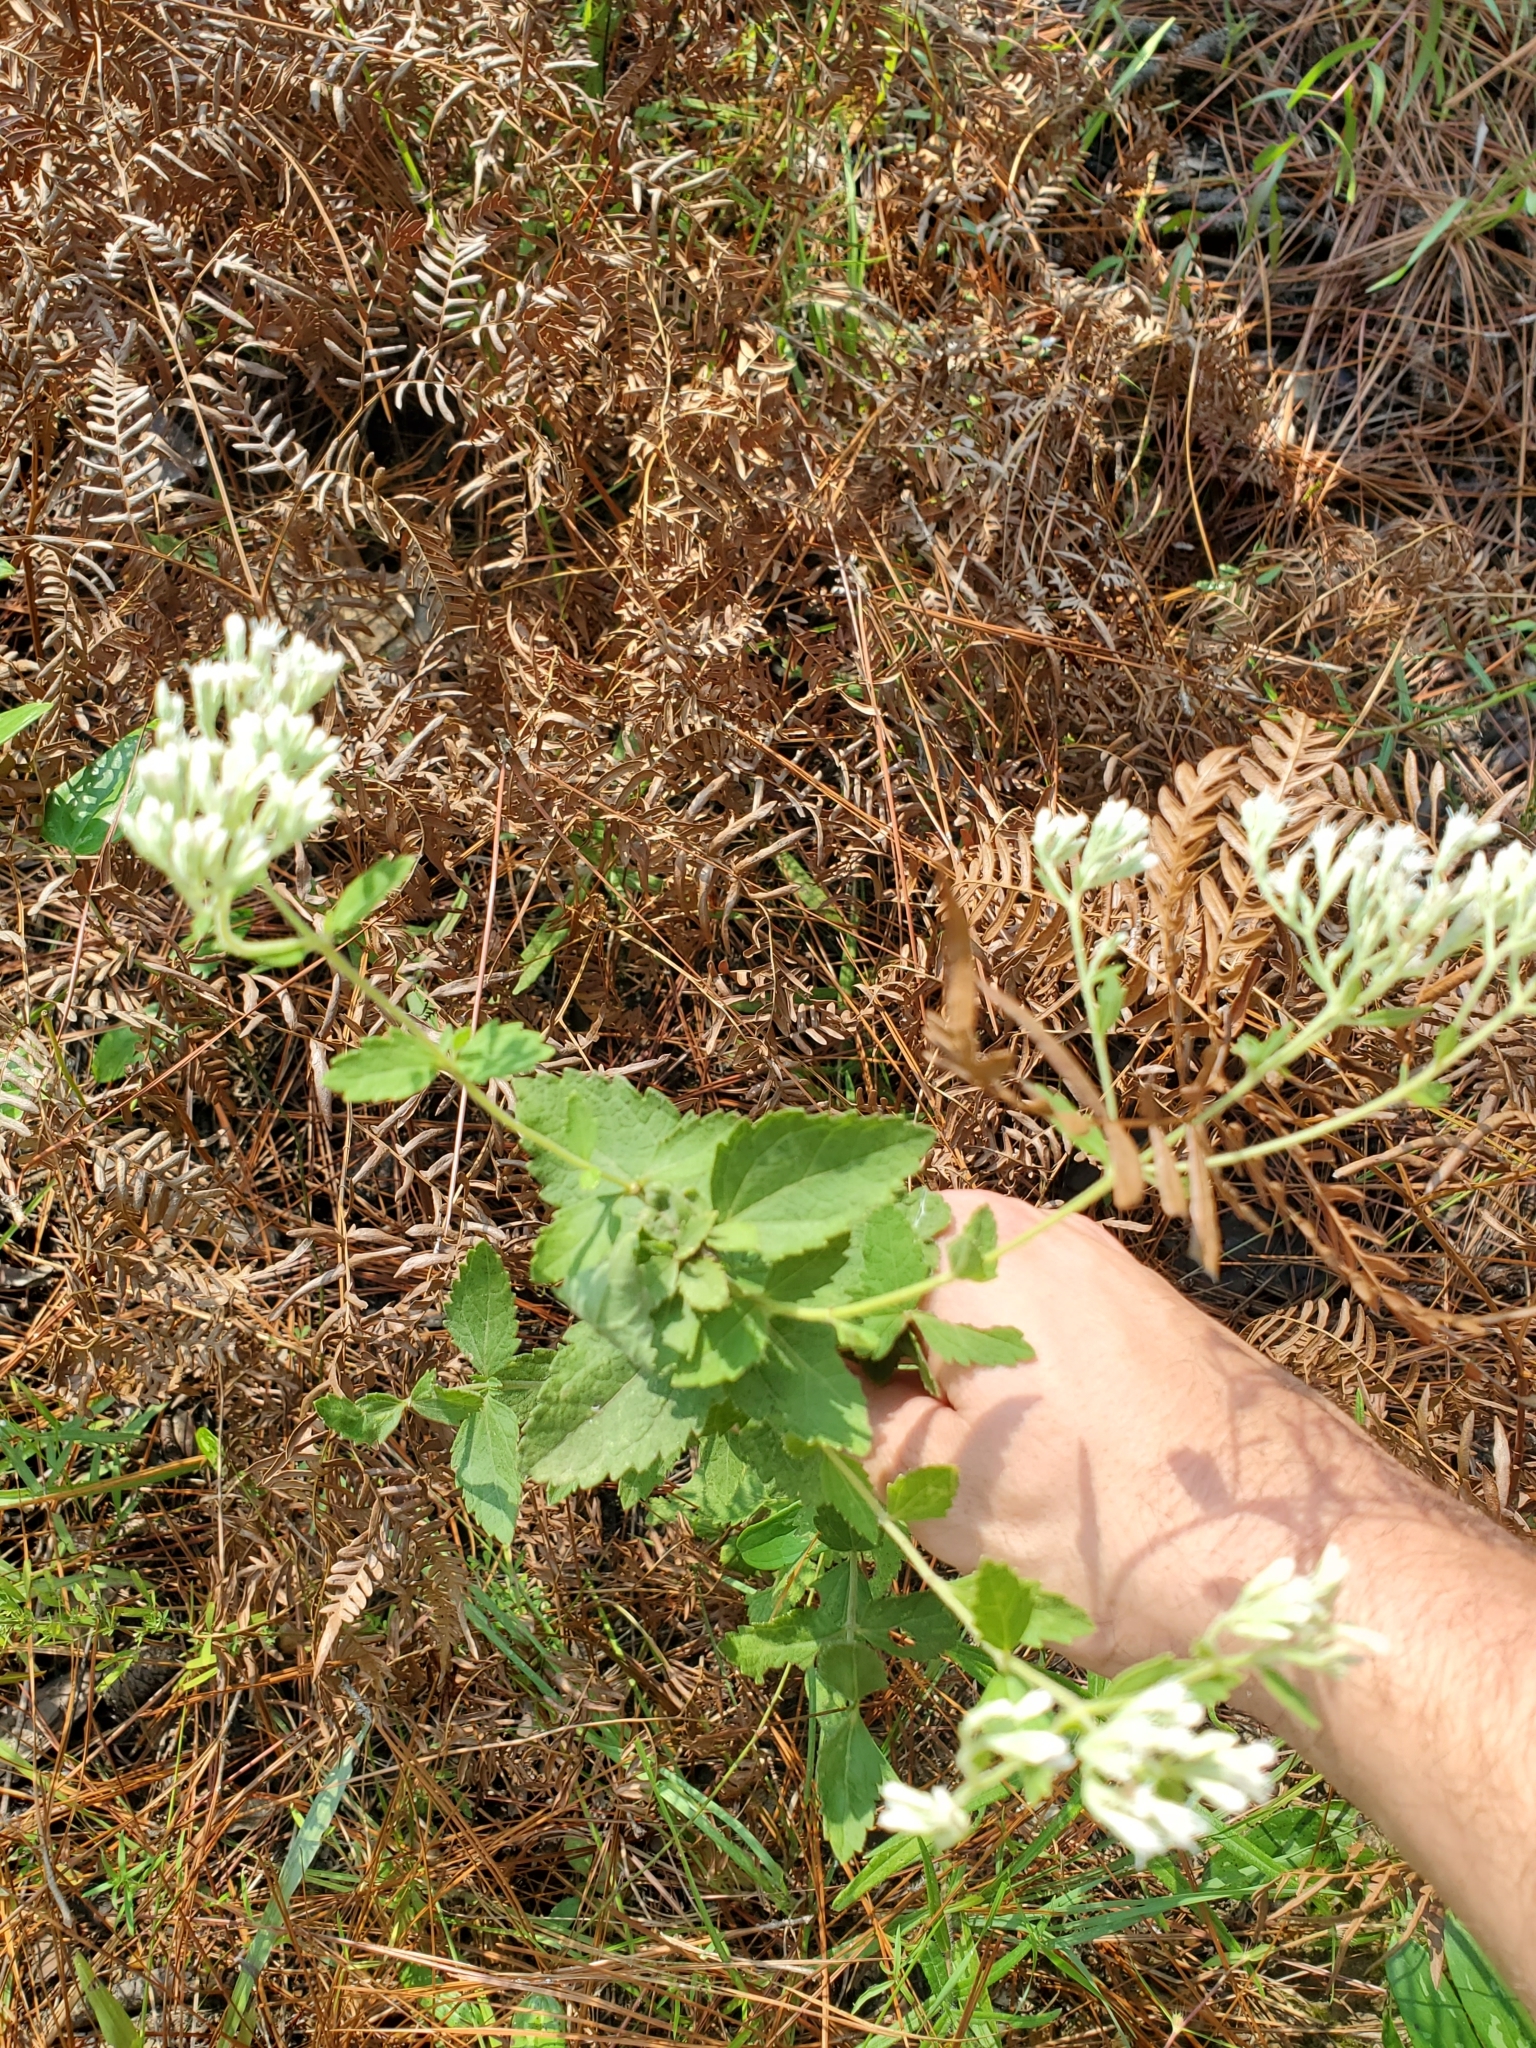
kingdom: Plantae
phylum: Tracheophyta
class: Magnoliopsida
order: Asterales
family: Asteraceae
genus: Eupatorium
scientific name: Eupatorium rotundifolium
